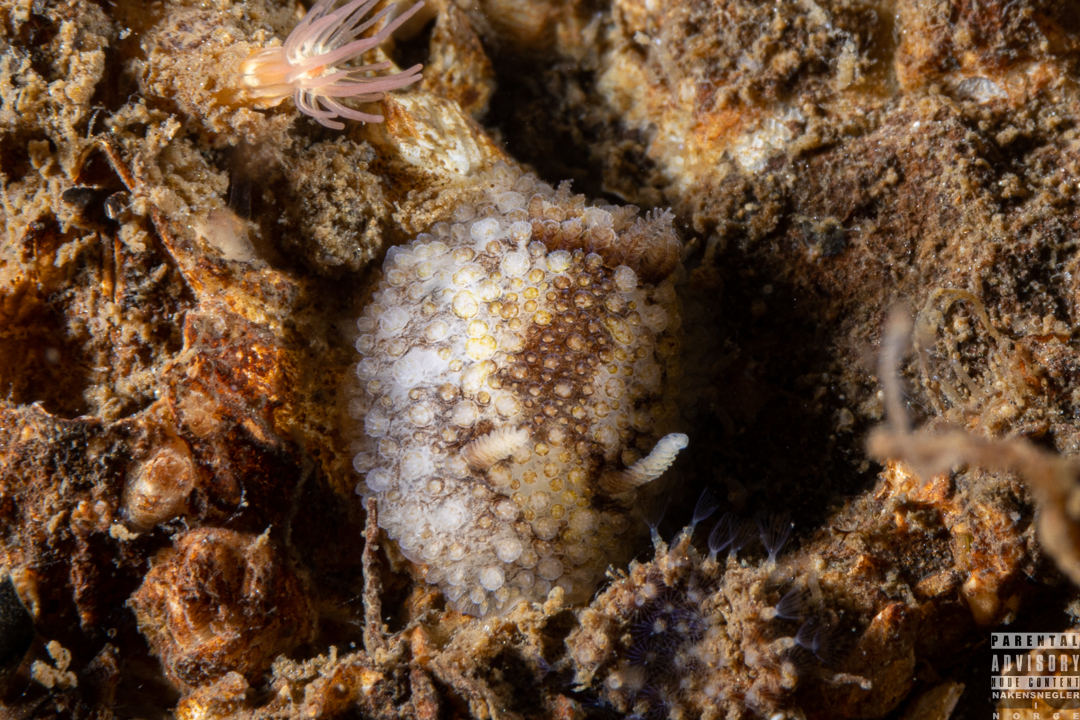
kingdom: Animalia
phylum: Mollusca
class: Gastropoda
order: Nudibranchia
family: Onchidorididae
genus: Onchidoris
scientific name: Onchidoris bilamellata
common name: Barnacle-eating onchidoris
